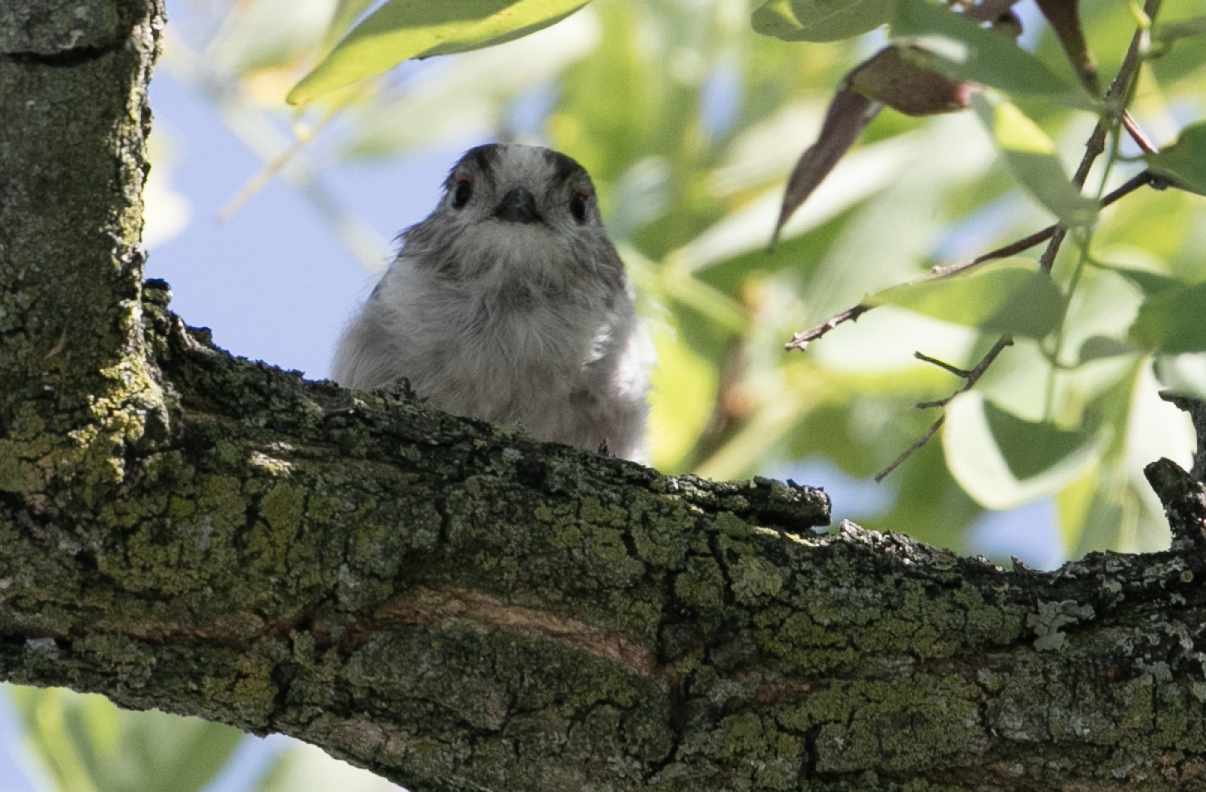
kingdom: Animalia
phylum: Chordata
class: Aves
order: Passeriformes
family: Aegithalidae
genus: Aegithalos
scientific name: Aegithalos caudatus
